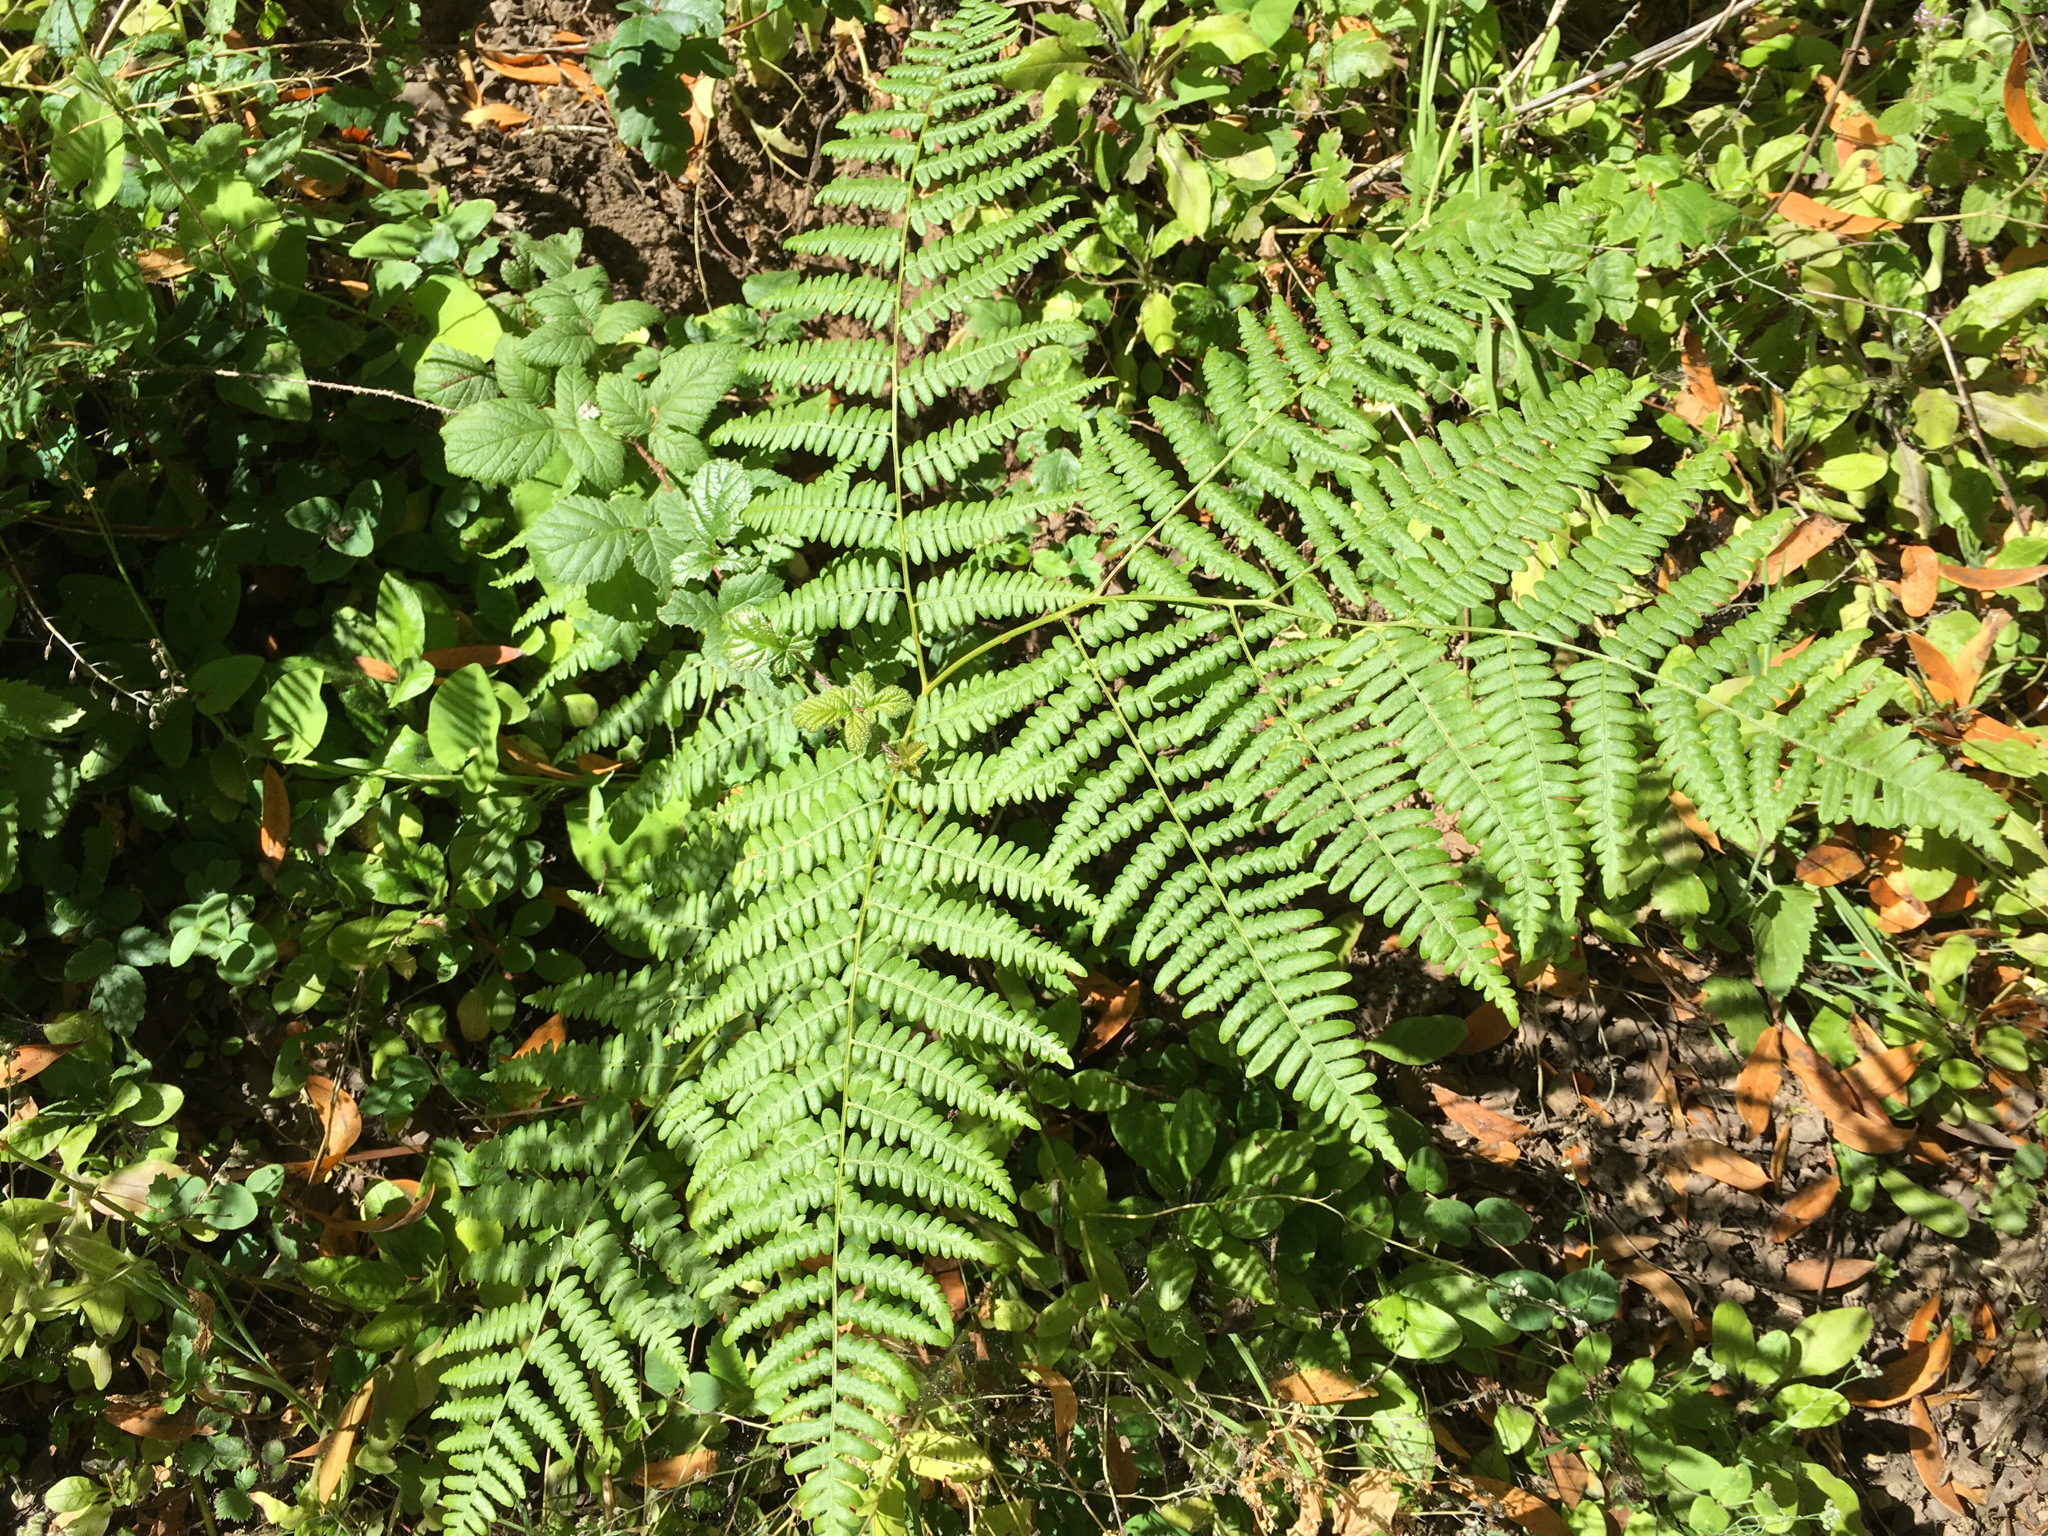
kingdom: Plantae
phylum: Tracheophyta
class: Polypodiopsida
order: Polypodiales
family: Dennstaedtiaceae
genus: Pteridium
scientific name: Pteridium aquilinum
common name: Bracken
